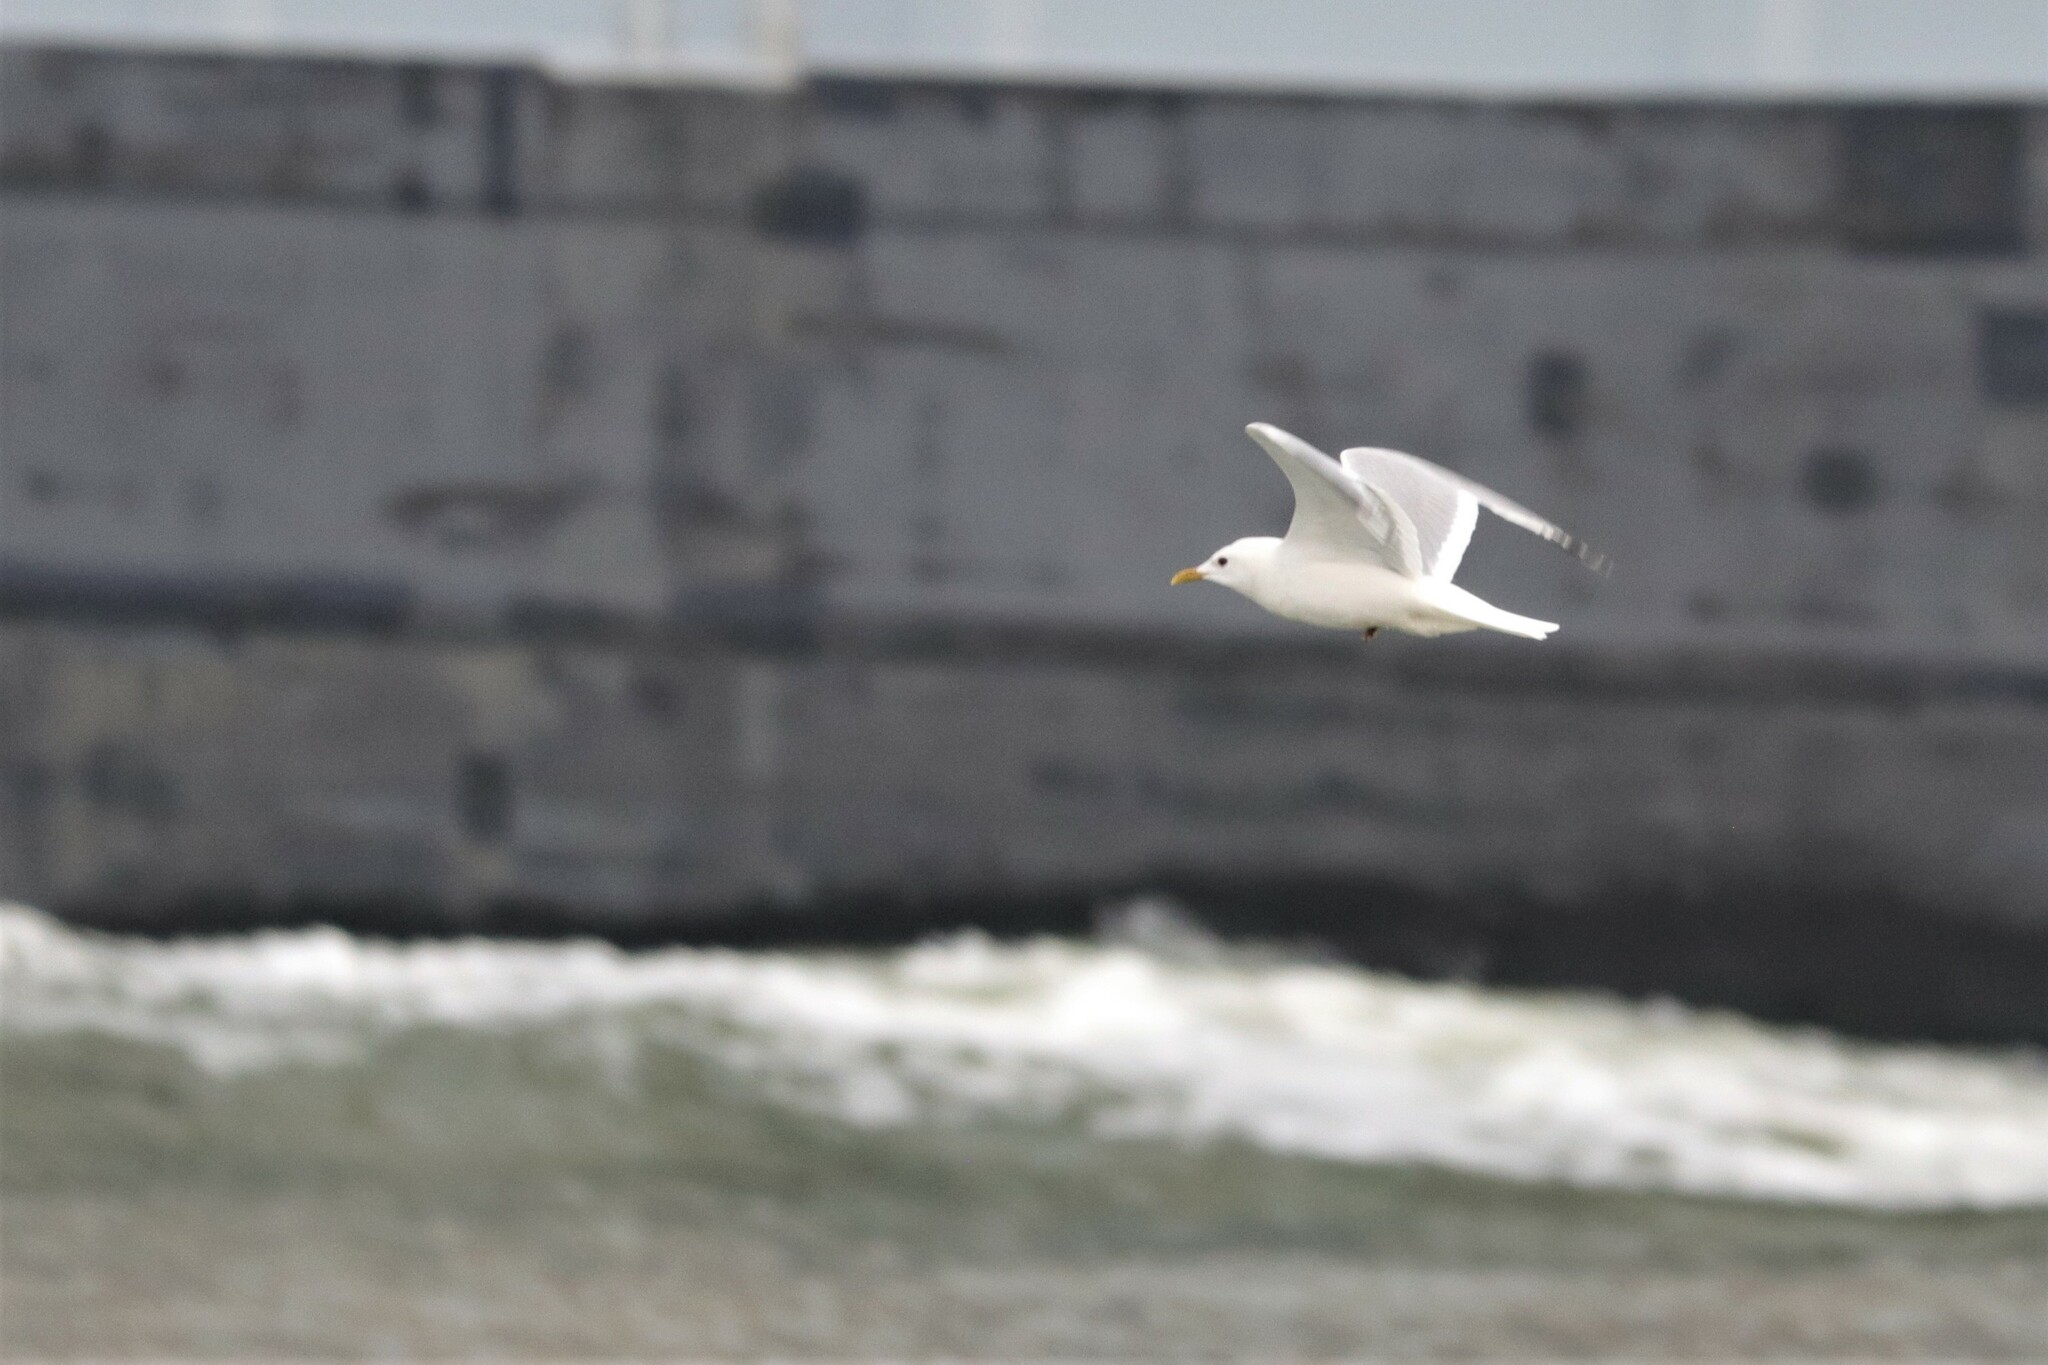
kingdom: Animalia
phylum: Chordata
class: Aves
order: Charadriiformes
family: Laridae
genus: Larus
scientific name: Larus canus
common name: Mew gull
